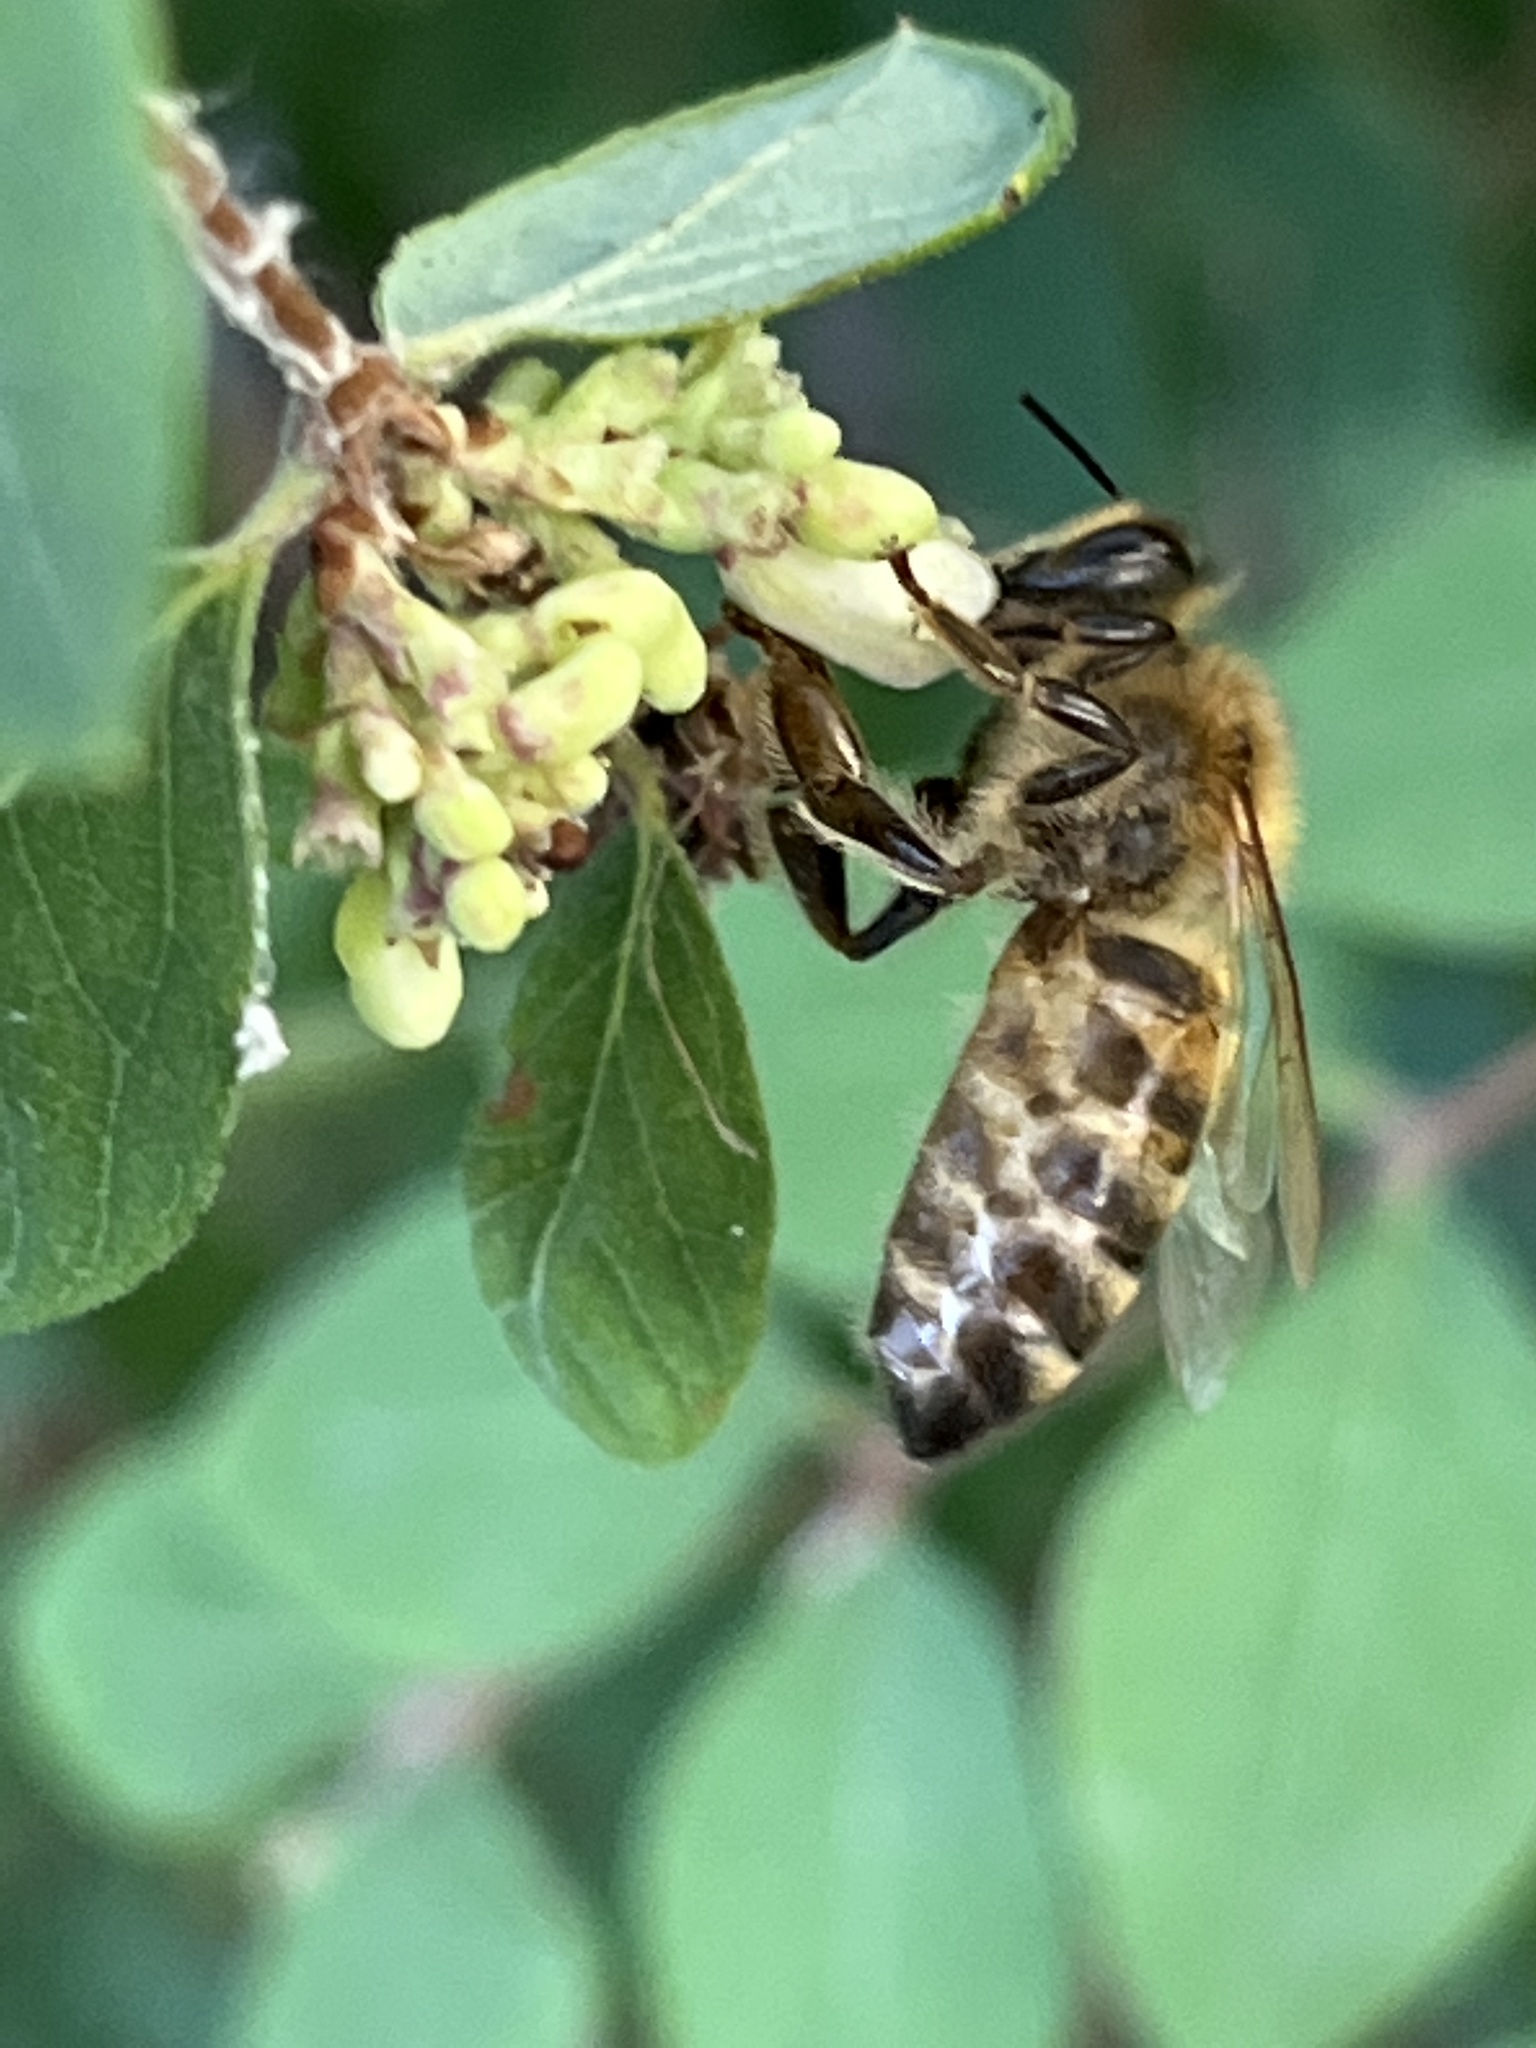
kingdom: Animalia
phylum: Arthropoda
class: Insecta
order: Hymenoptera
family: Apidae
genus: Apis
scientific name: Apis mellifera
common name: Honey bee
